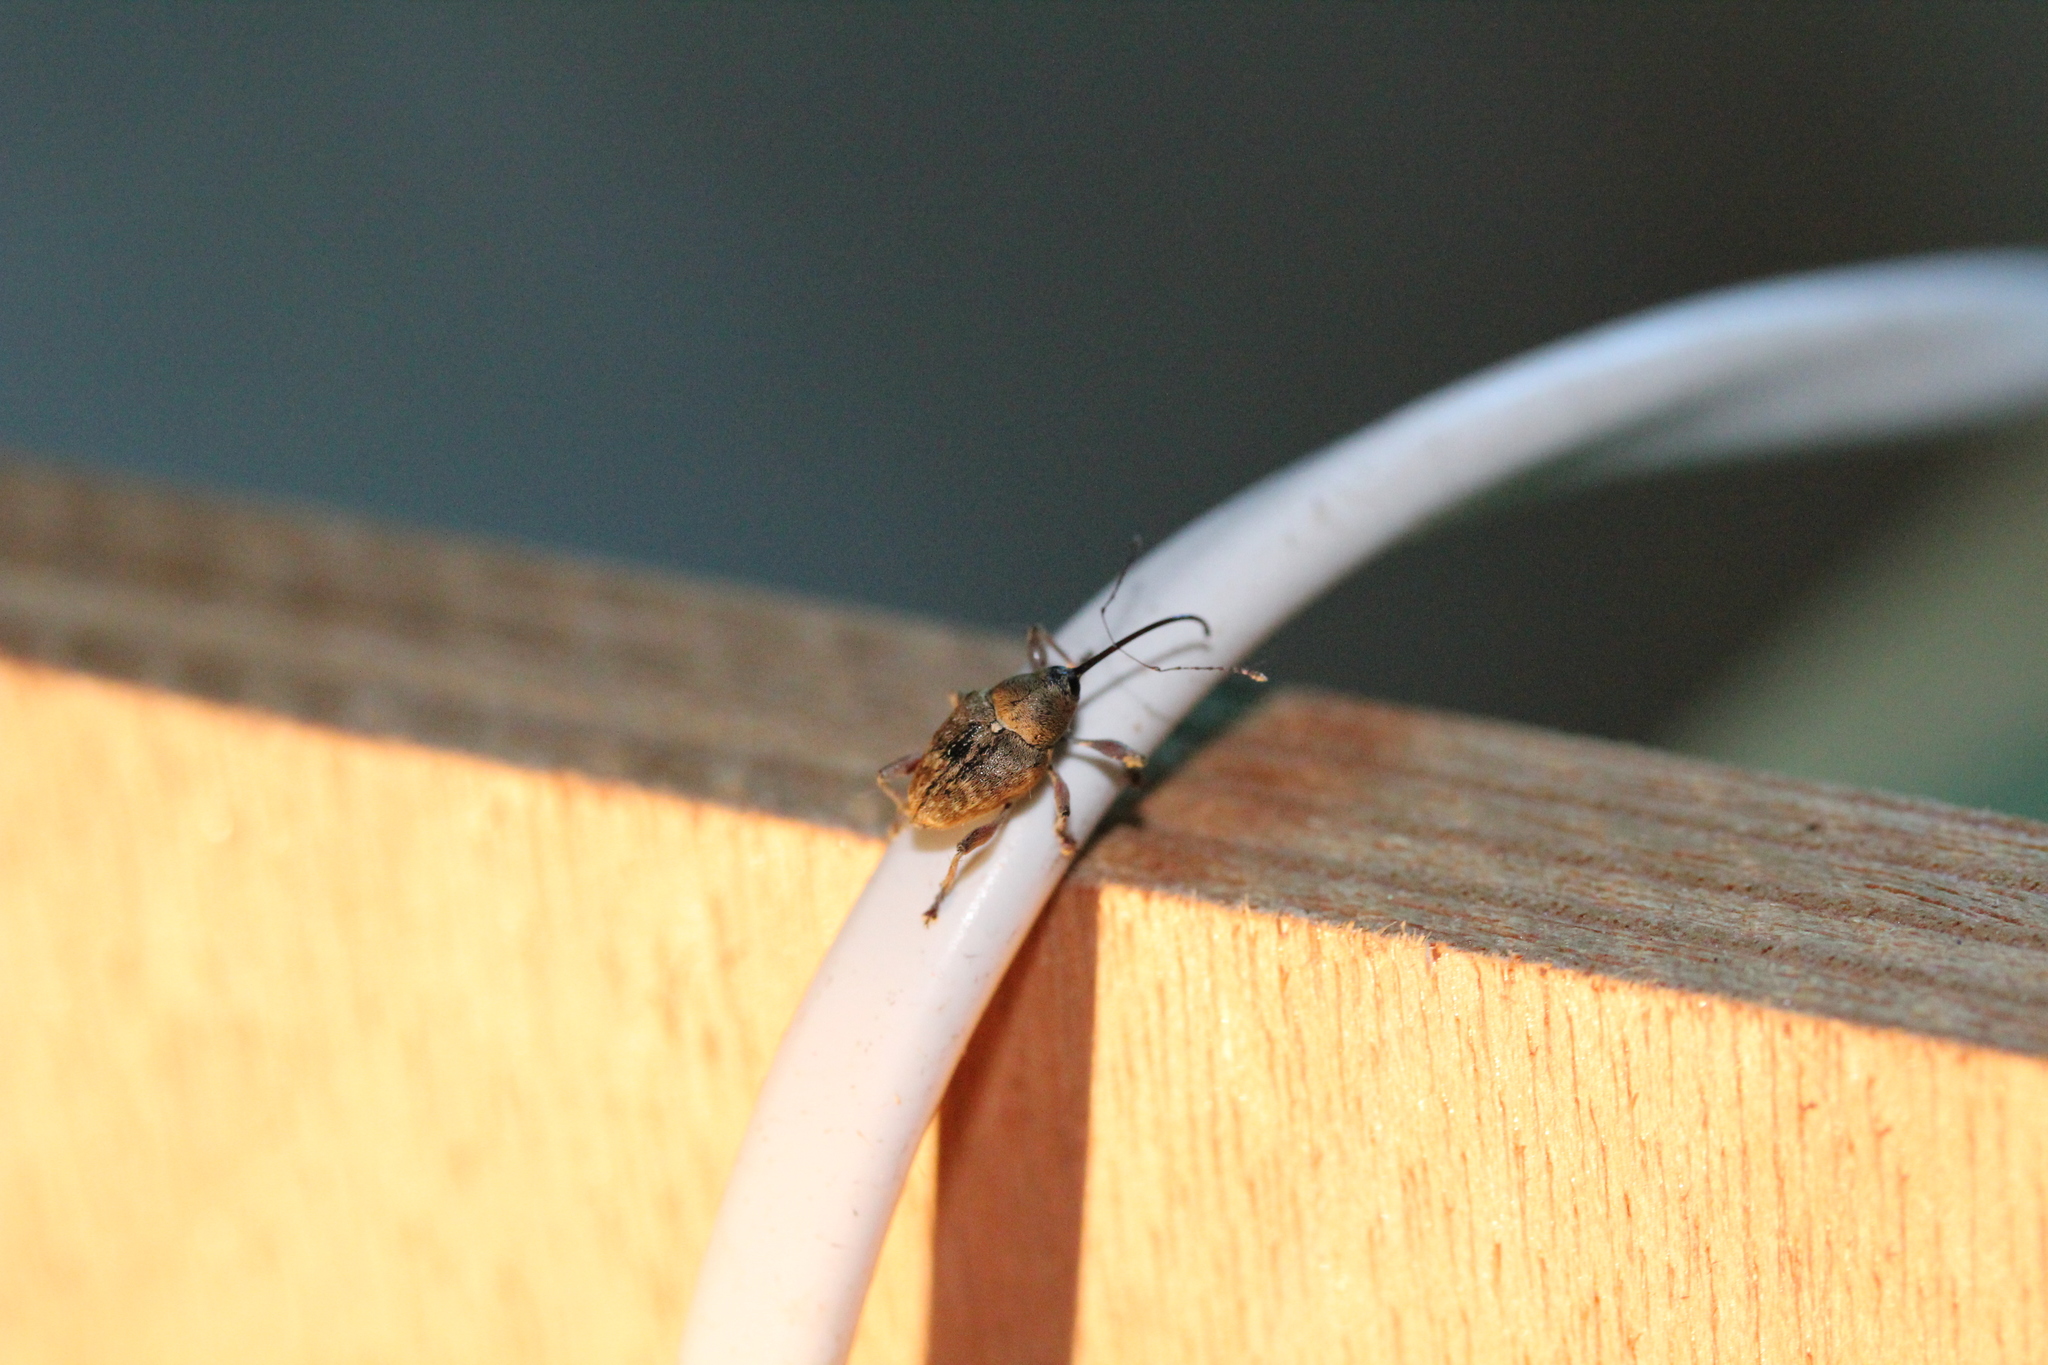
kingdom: Animalia
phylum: Arthropoda
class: Insecta
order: Coleoptera
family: Curculionidae
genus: Curculio
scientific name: Curculio glandium
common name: Acorn weevil
